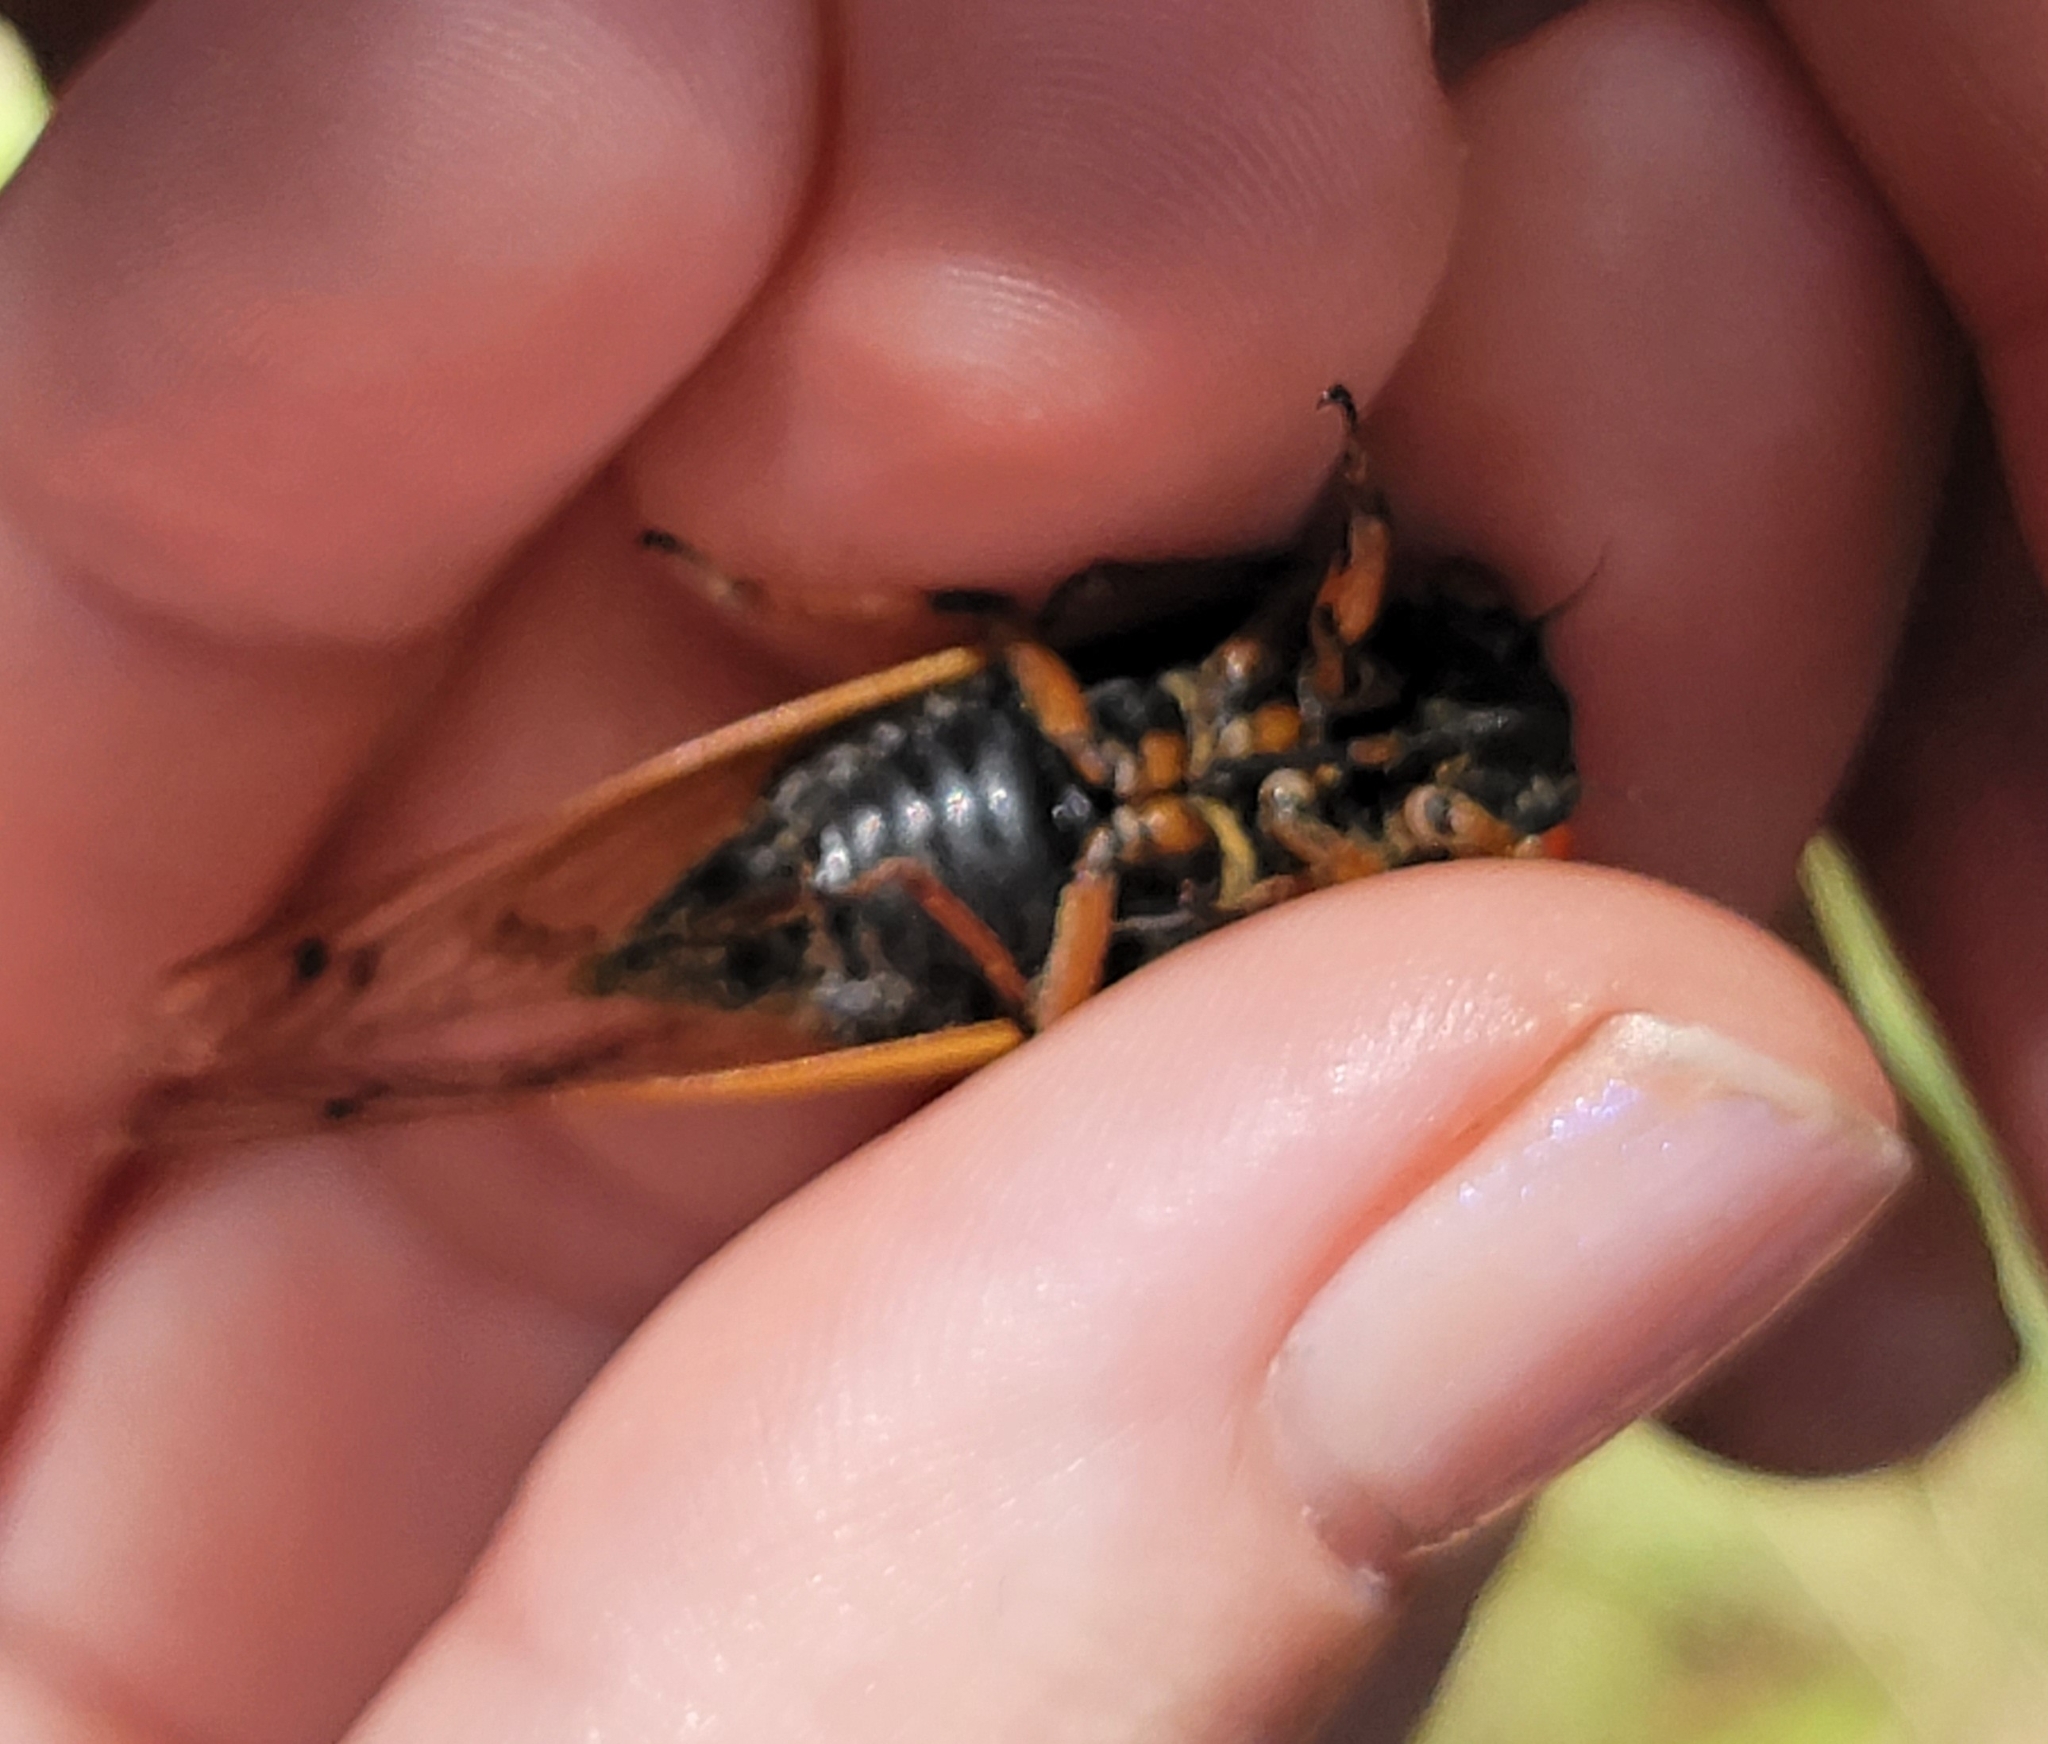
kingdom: Animalia
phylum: Arthropoda
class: Insecta
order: Hemiptera
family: Cicadidae
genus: Magicicada
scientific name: Magicicada cassini
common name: Cassin's 17-year cicada
